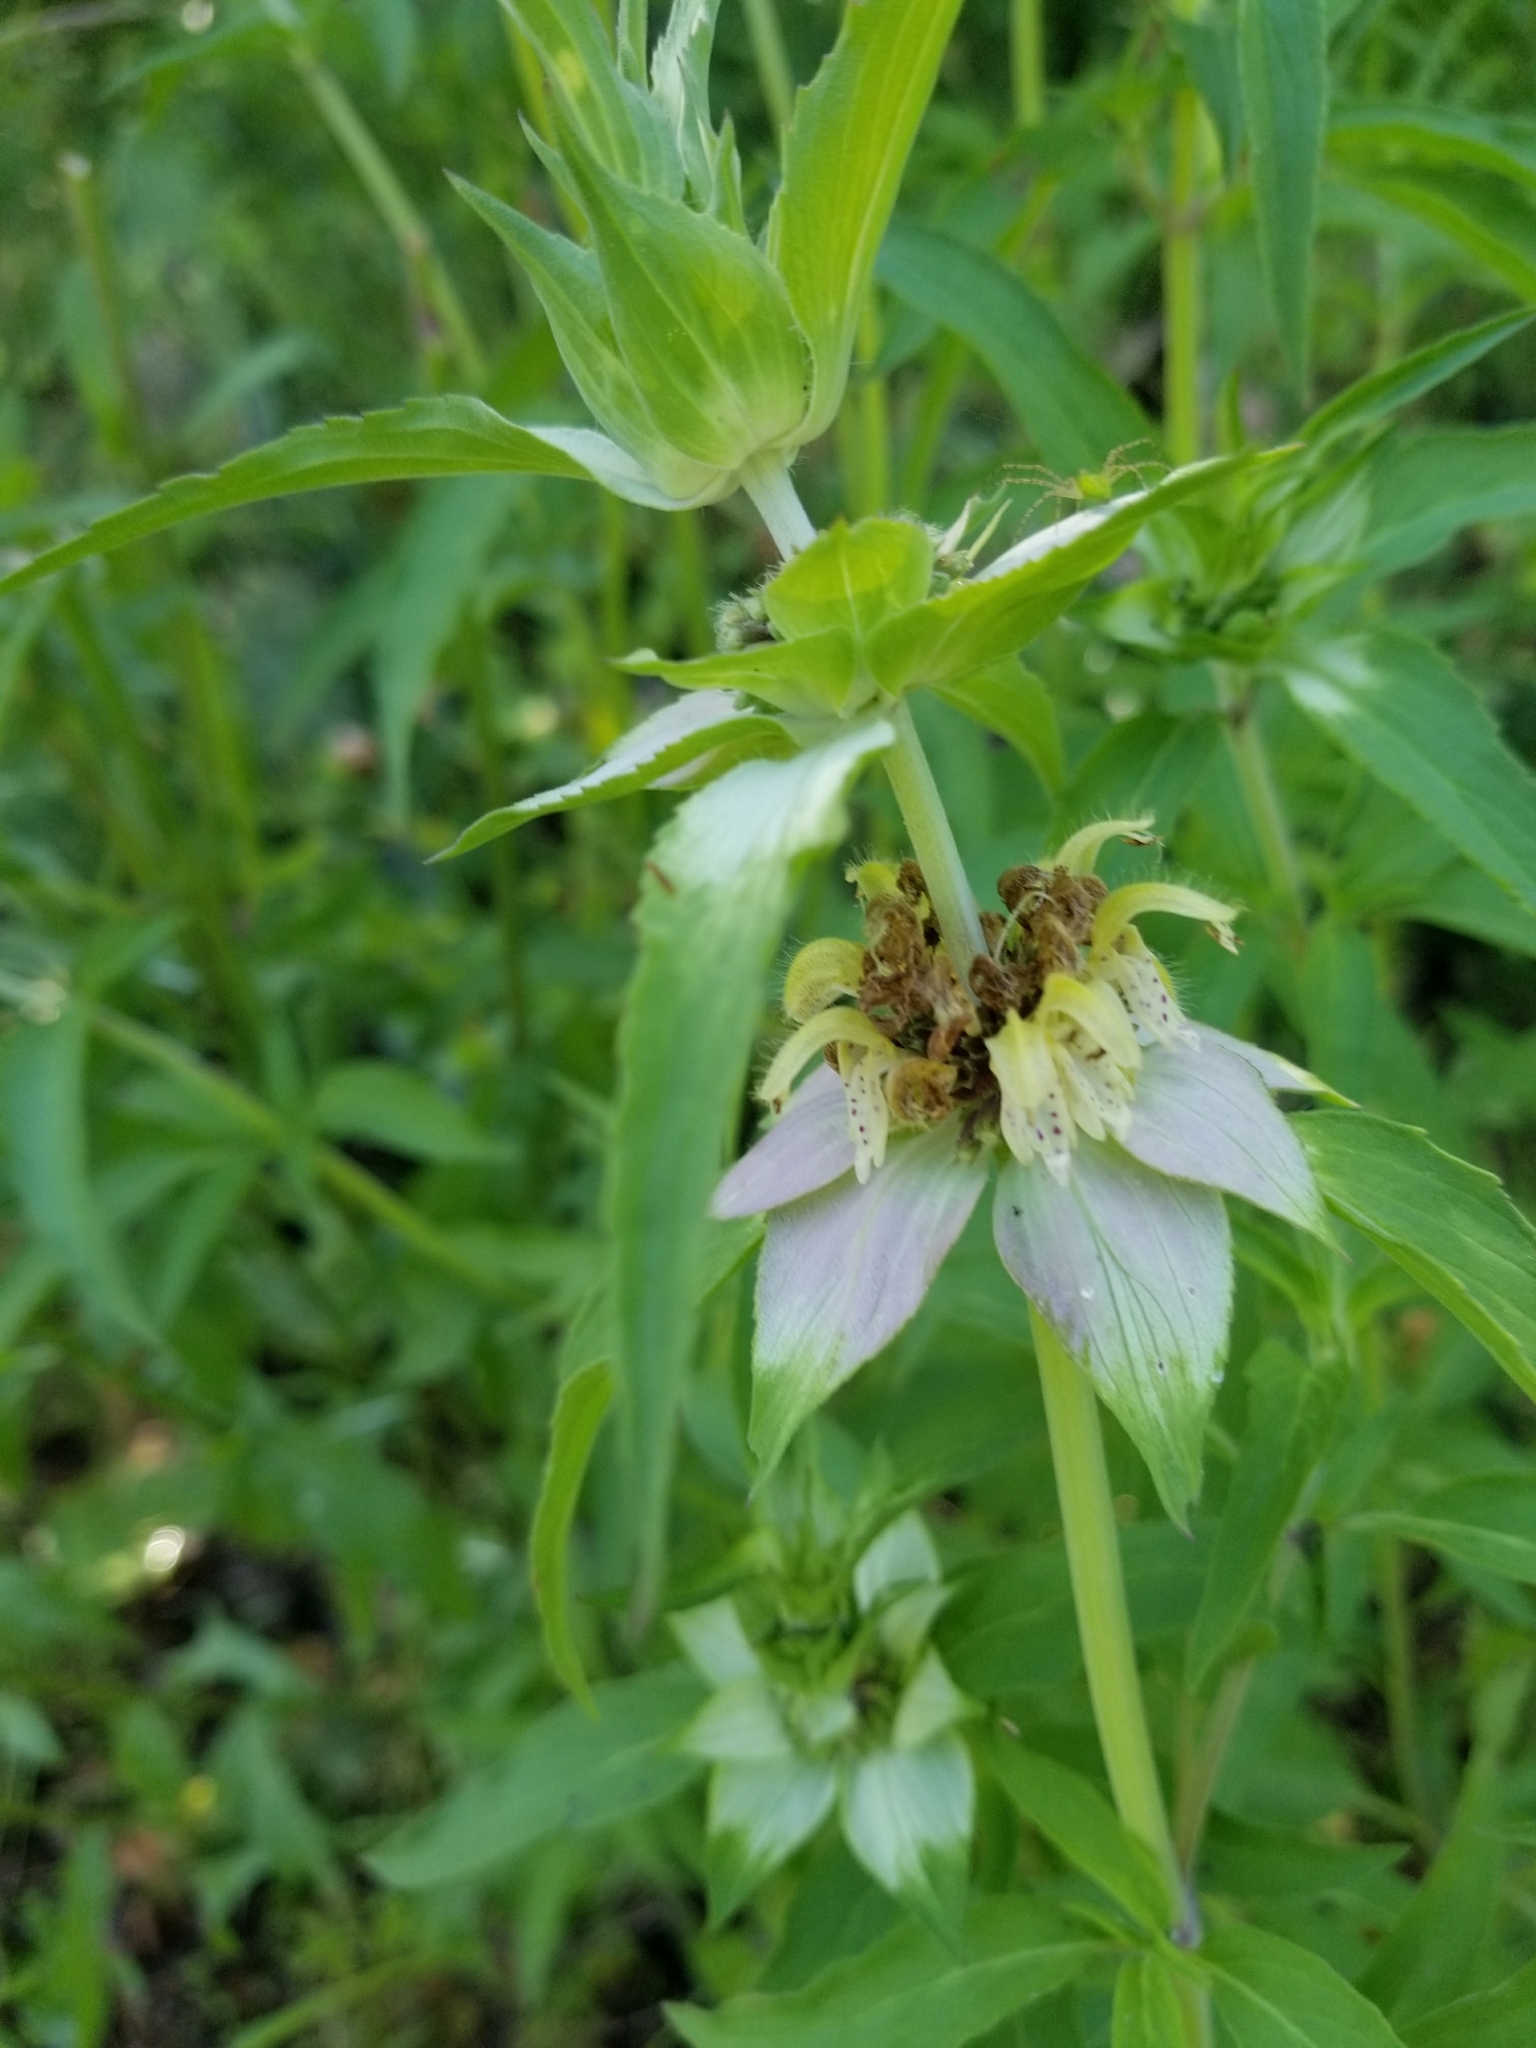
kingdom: Plantae
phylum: Tracheophyta
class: Magnoliopsida
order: Lamiales
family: Lamiaceae
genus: Monarda
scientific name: Monarda punctata
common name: Dotted monarda
